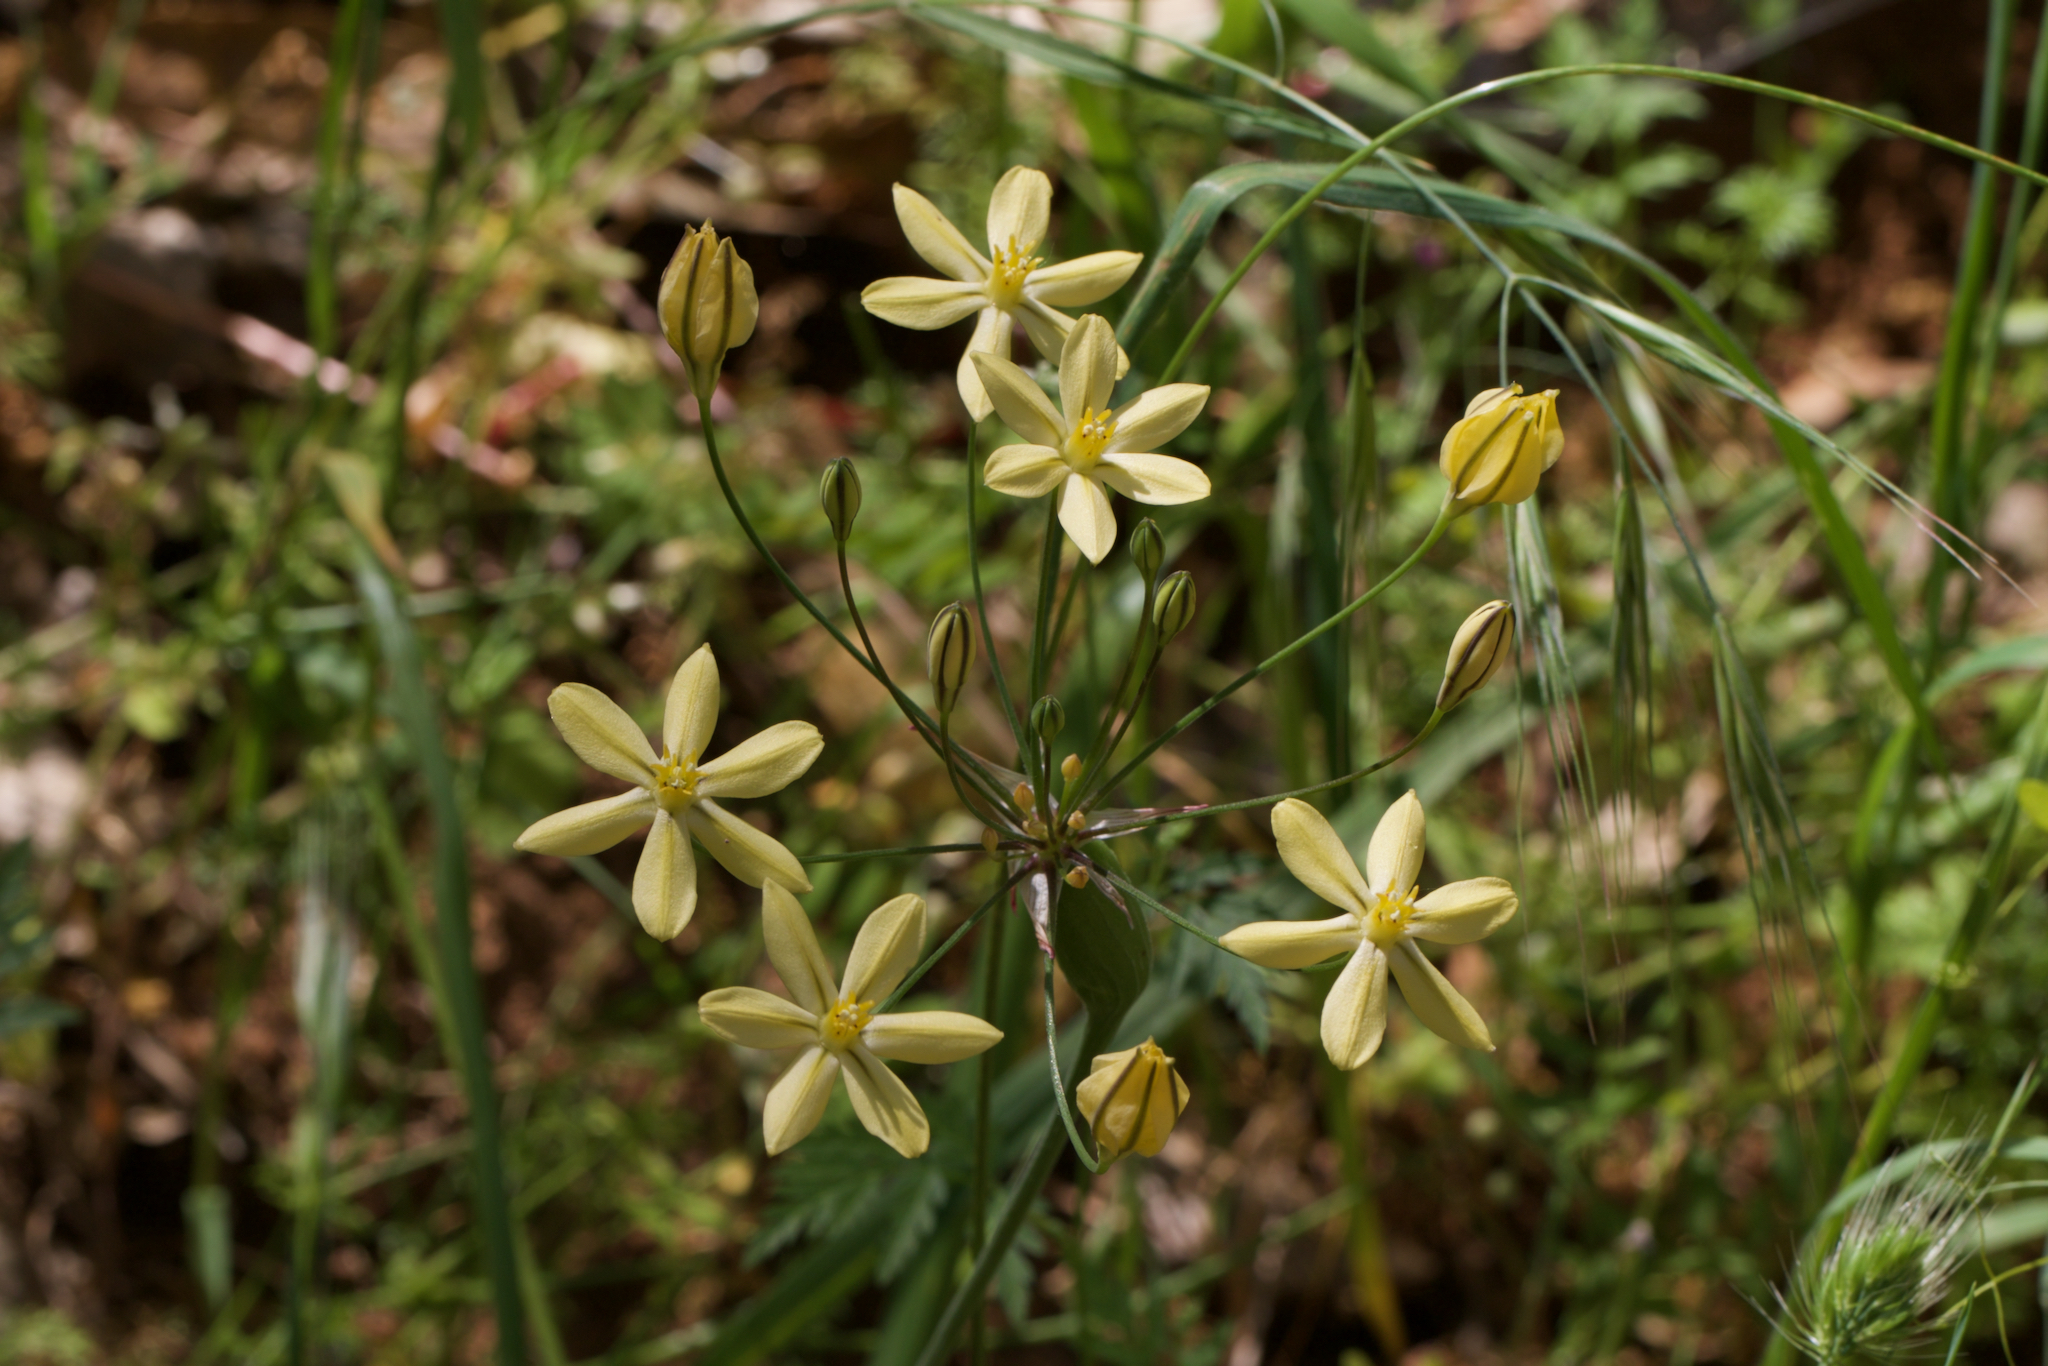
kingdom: Plantae
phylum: Tracheophyta
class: Liliopsida
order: Asparagales
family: Asparagaceae
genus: Triteleia
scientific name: Triteleia ixioides
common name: Yellow-brodiaea
